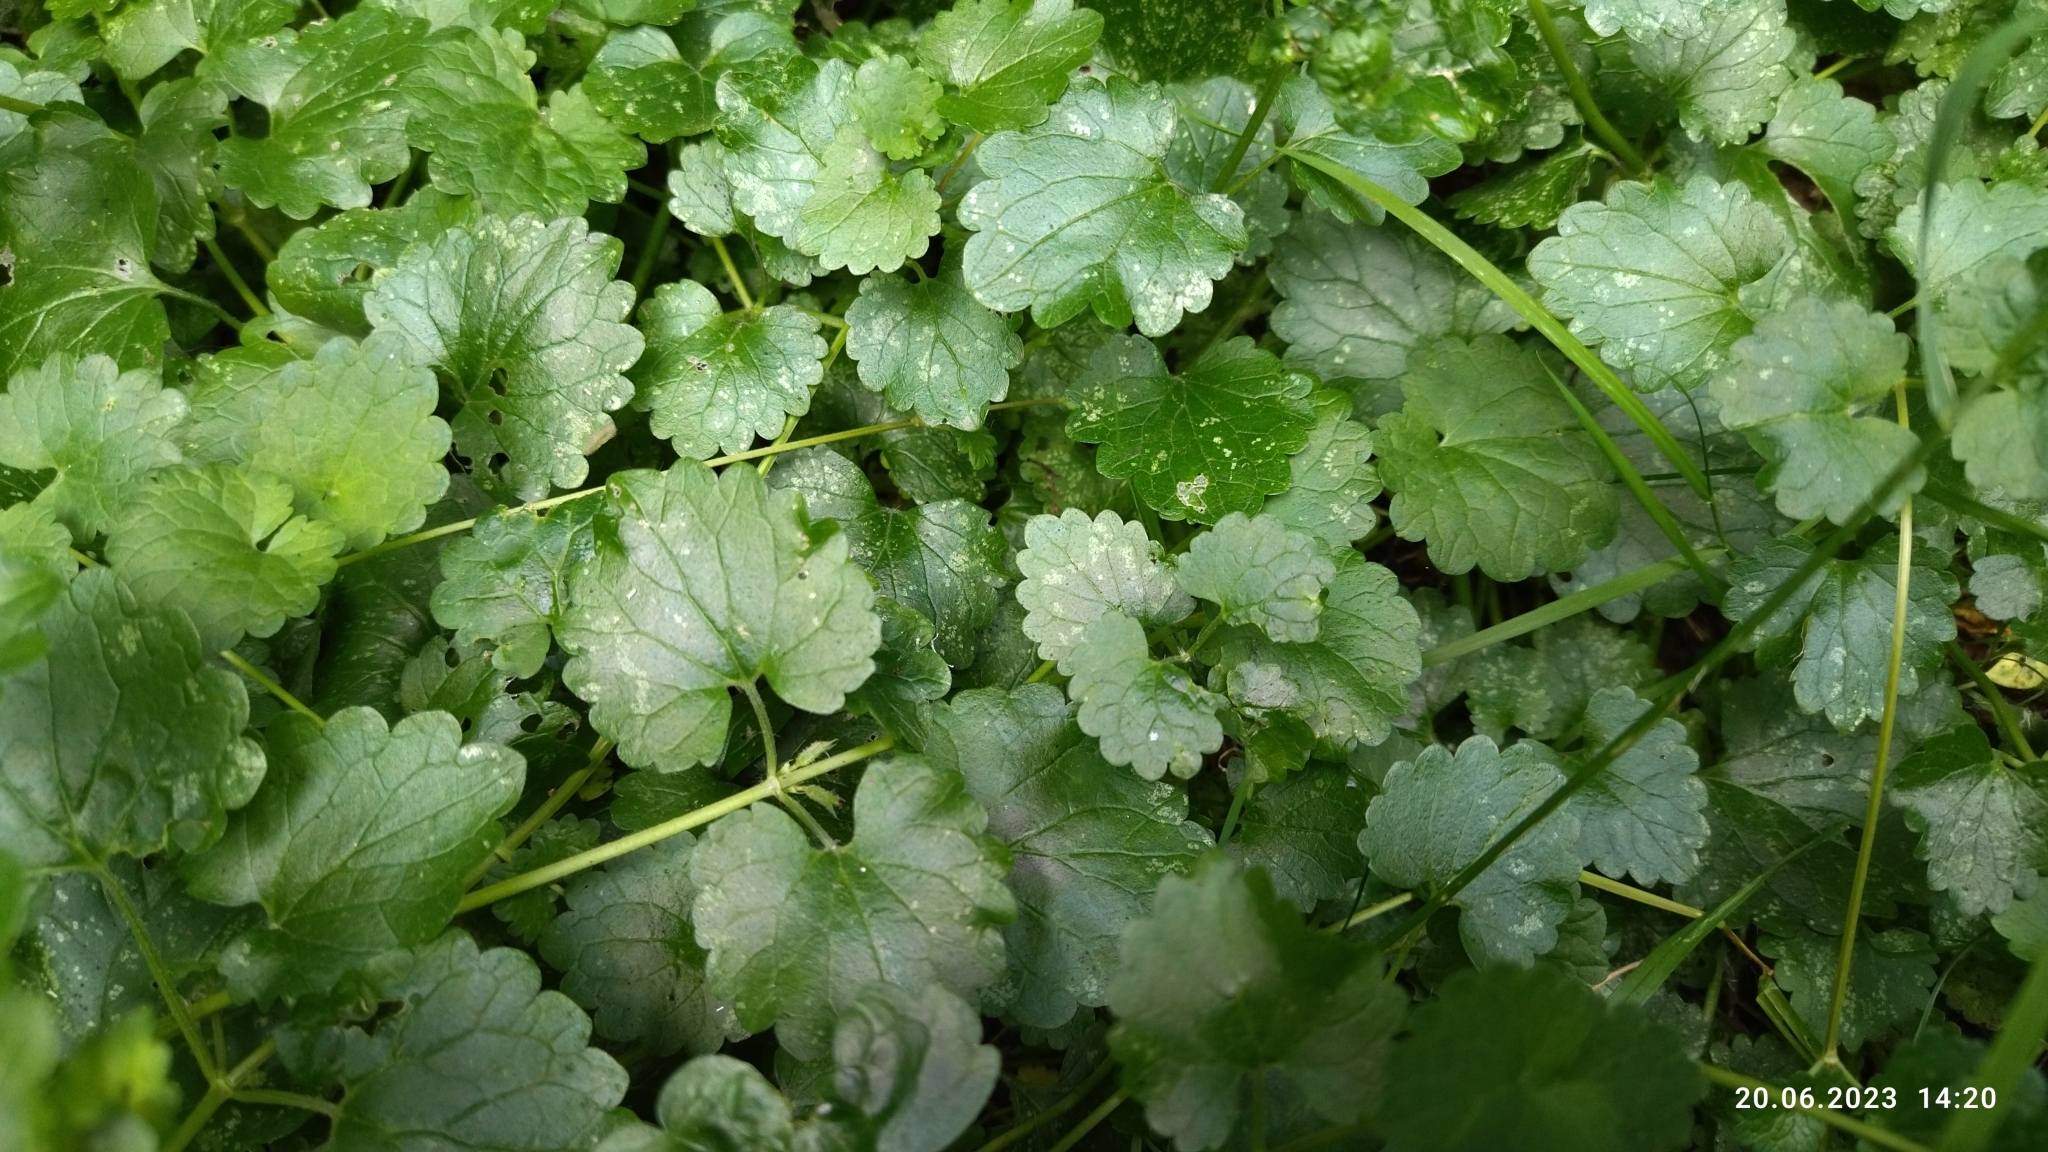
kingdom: Plantae
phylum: Tracheophyta
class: Magnoliopsida
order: Lamiales
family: Lamiaceae
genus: Glechoma
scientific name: Glechoma hederacea
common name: Ground ivy
